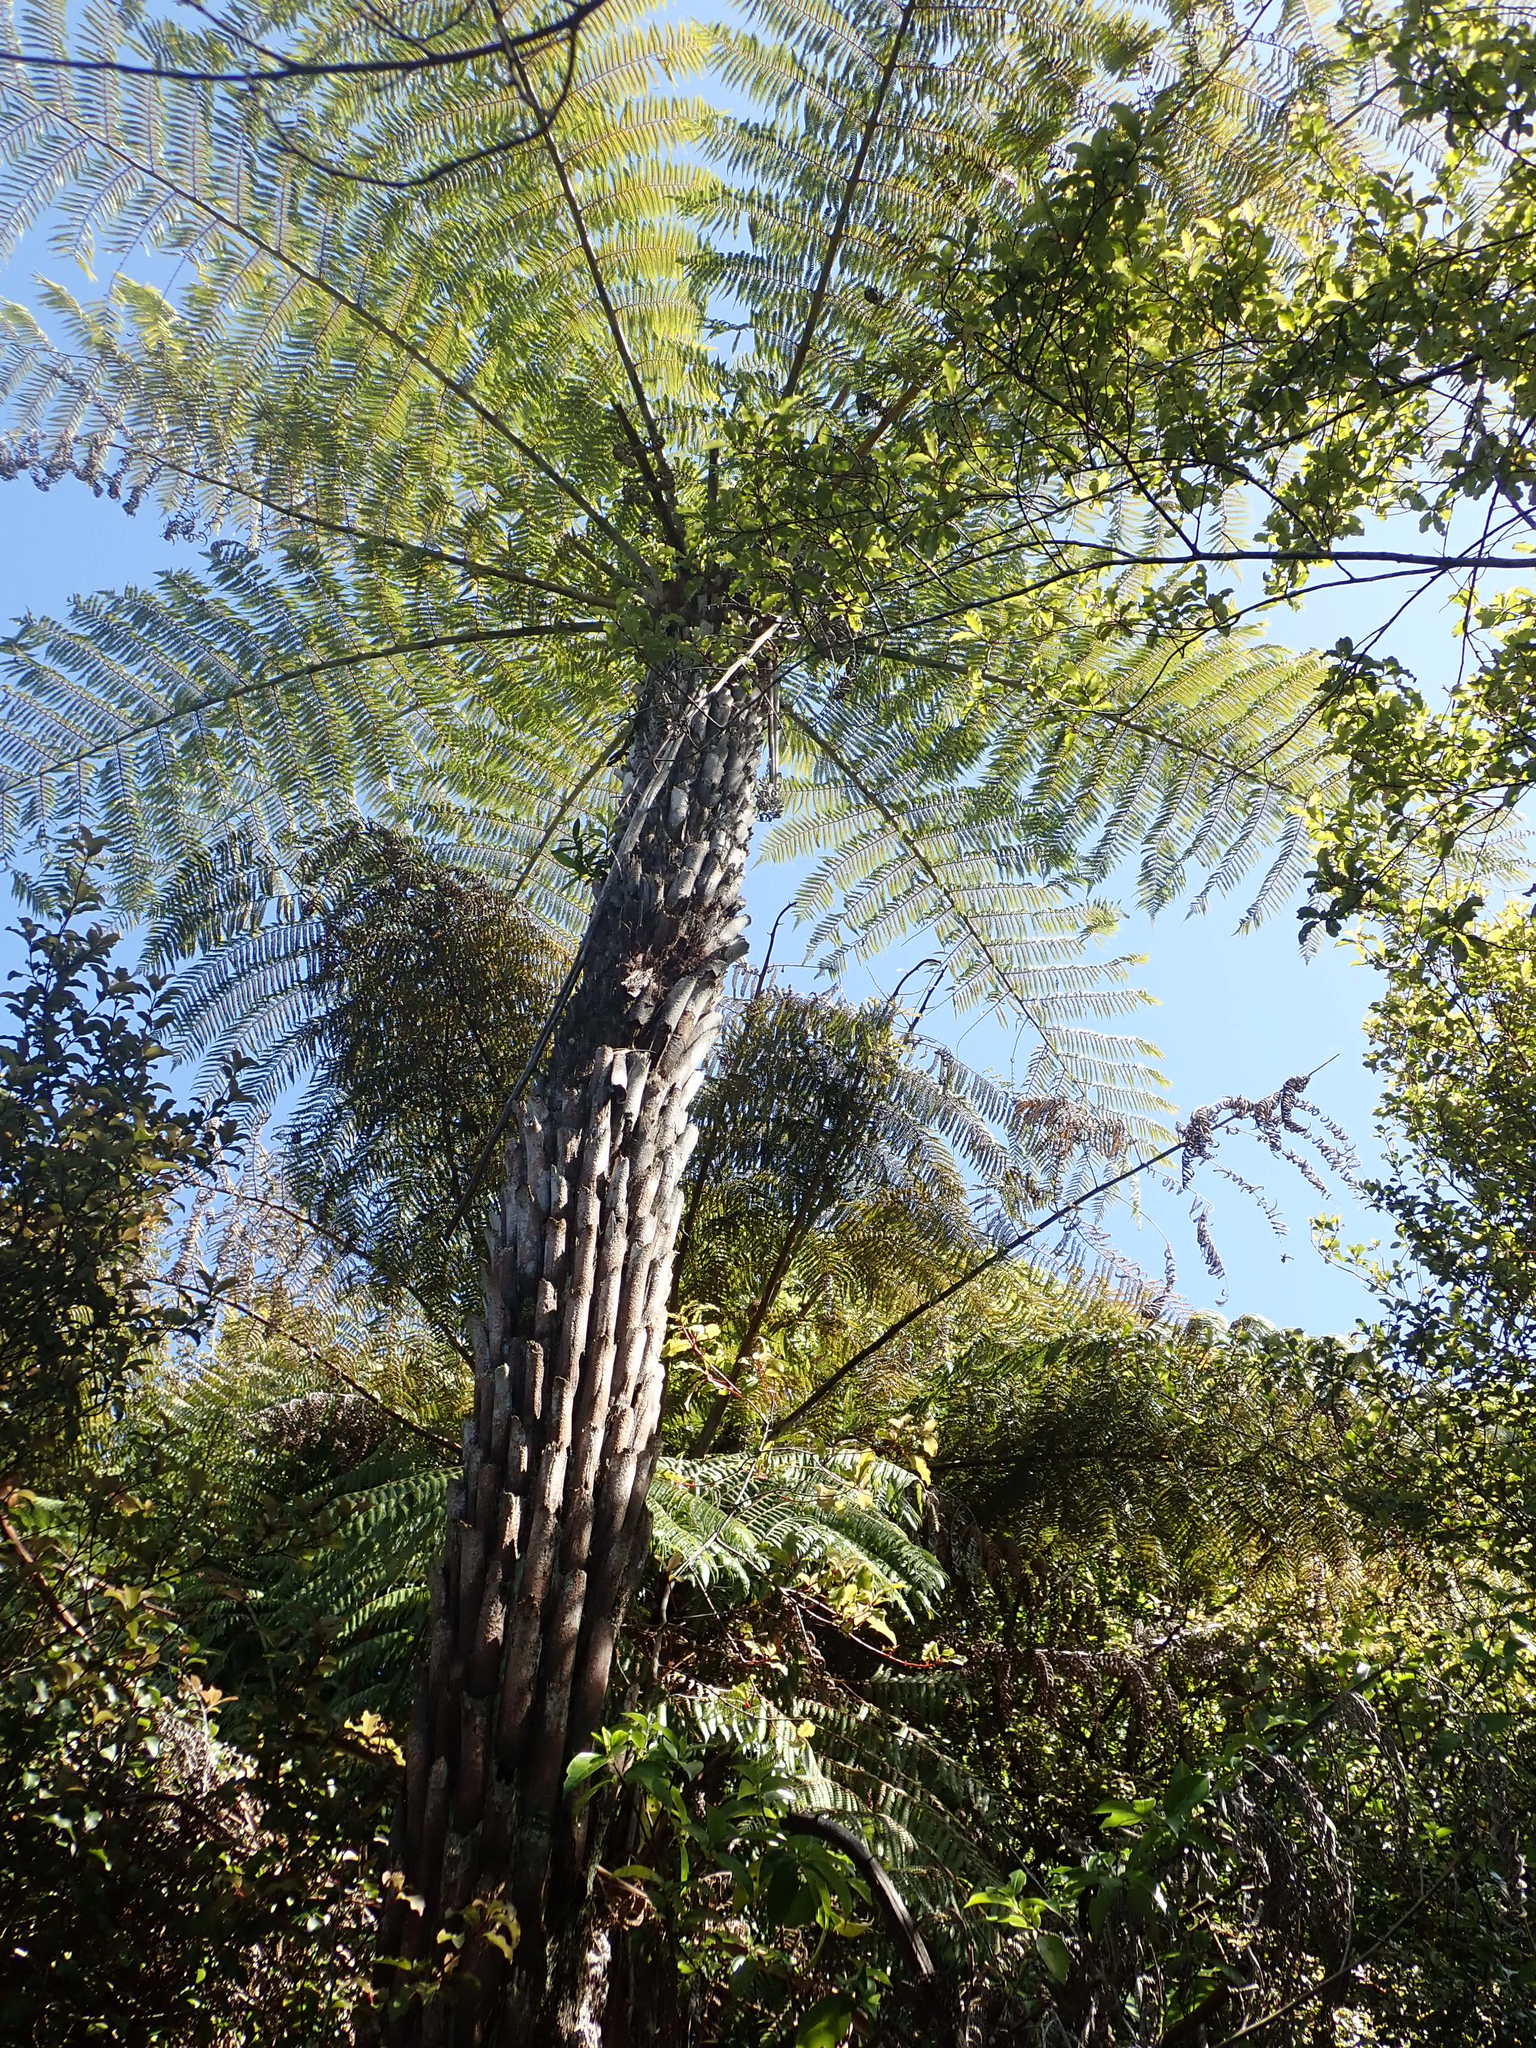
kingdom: Plantae
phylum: Tracheophyta
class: Polypodiopsida
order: Cyatheales
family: Cyatheaceae
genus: Alsophila
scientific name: Alsophila dealbata
